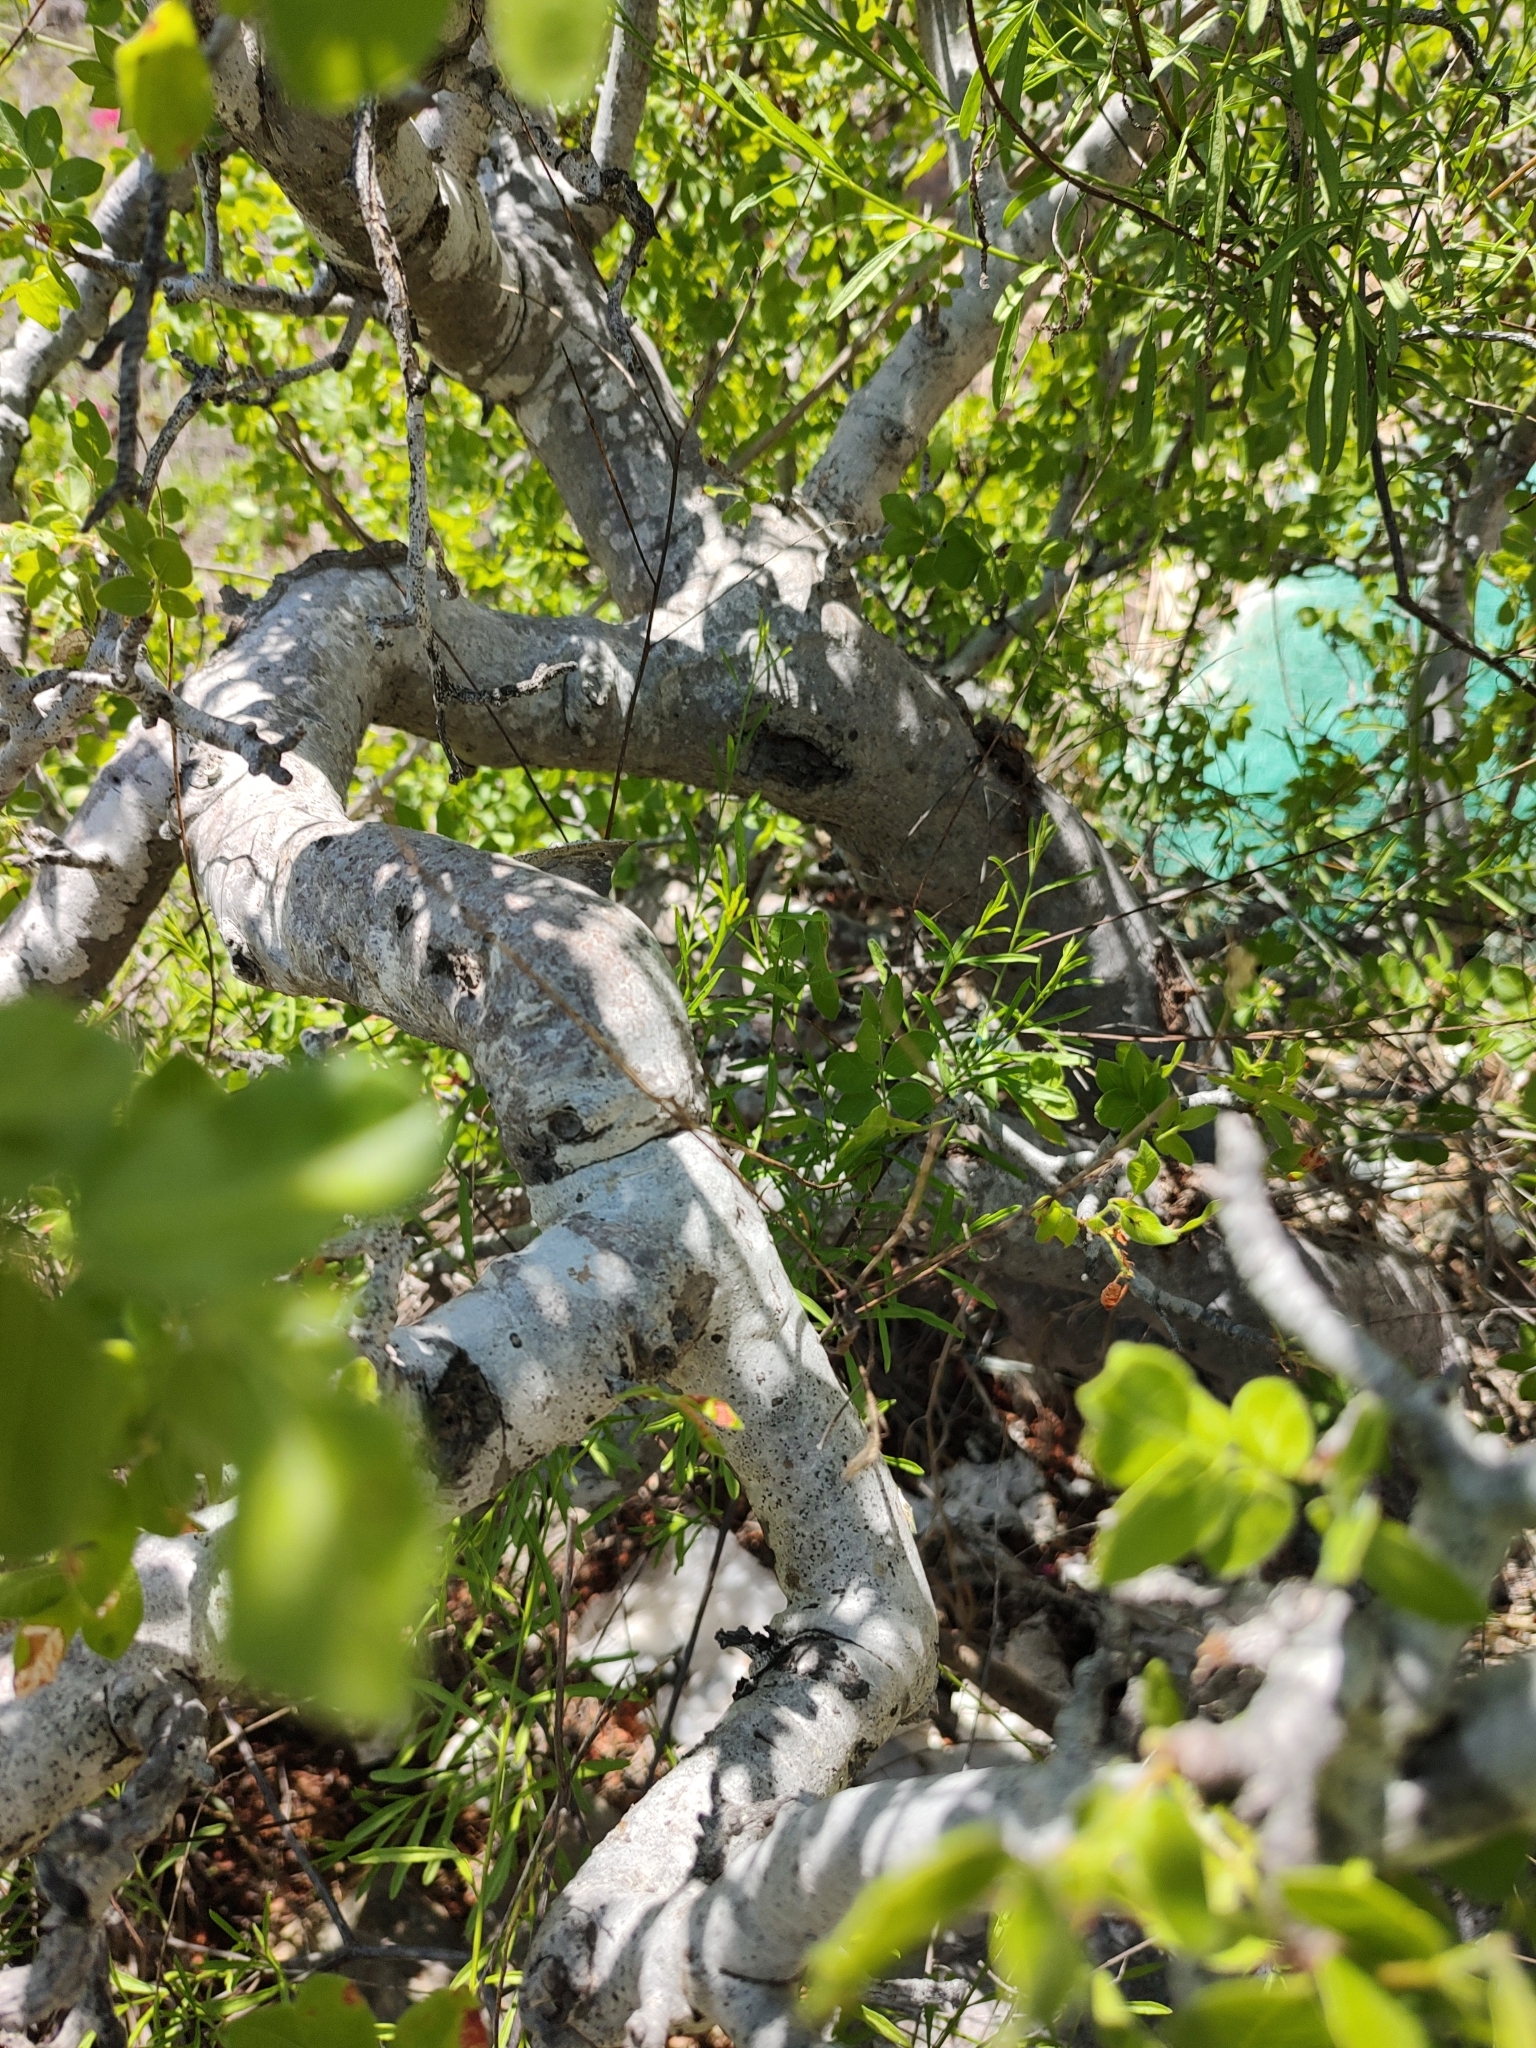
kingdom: Plantae
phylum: Tracheophyta
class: Magnoliopsida
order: Sapindales
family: Anacardiaceae
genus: Cyrtocarpa
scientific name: Cyrtocarpa edulis
